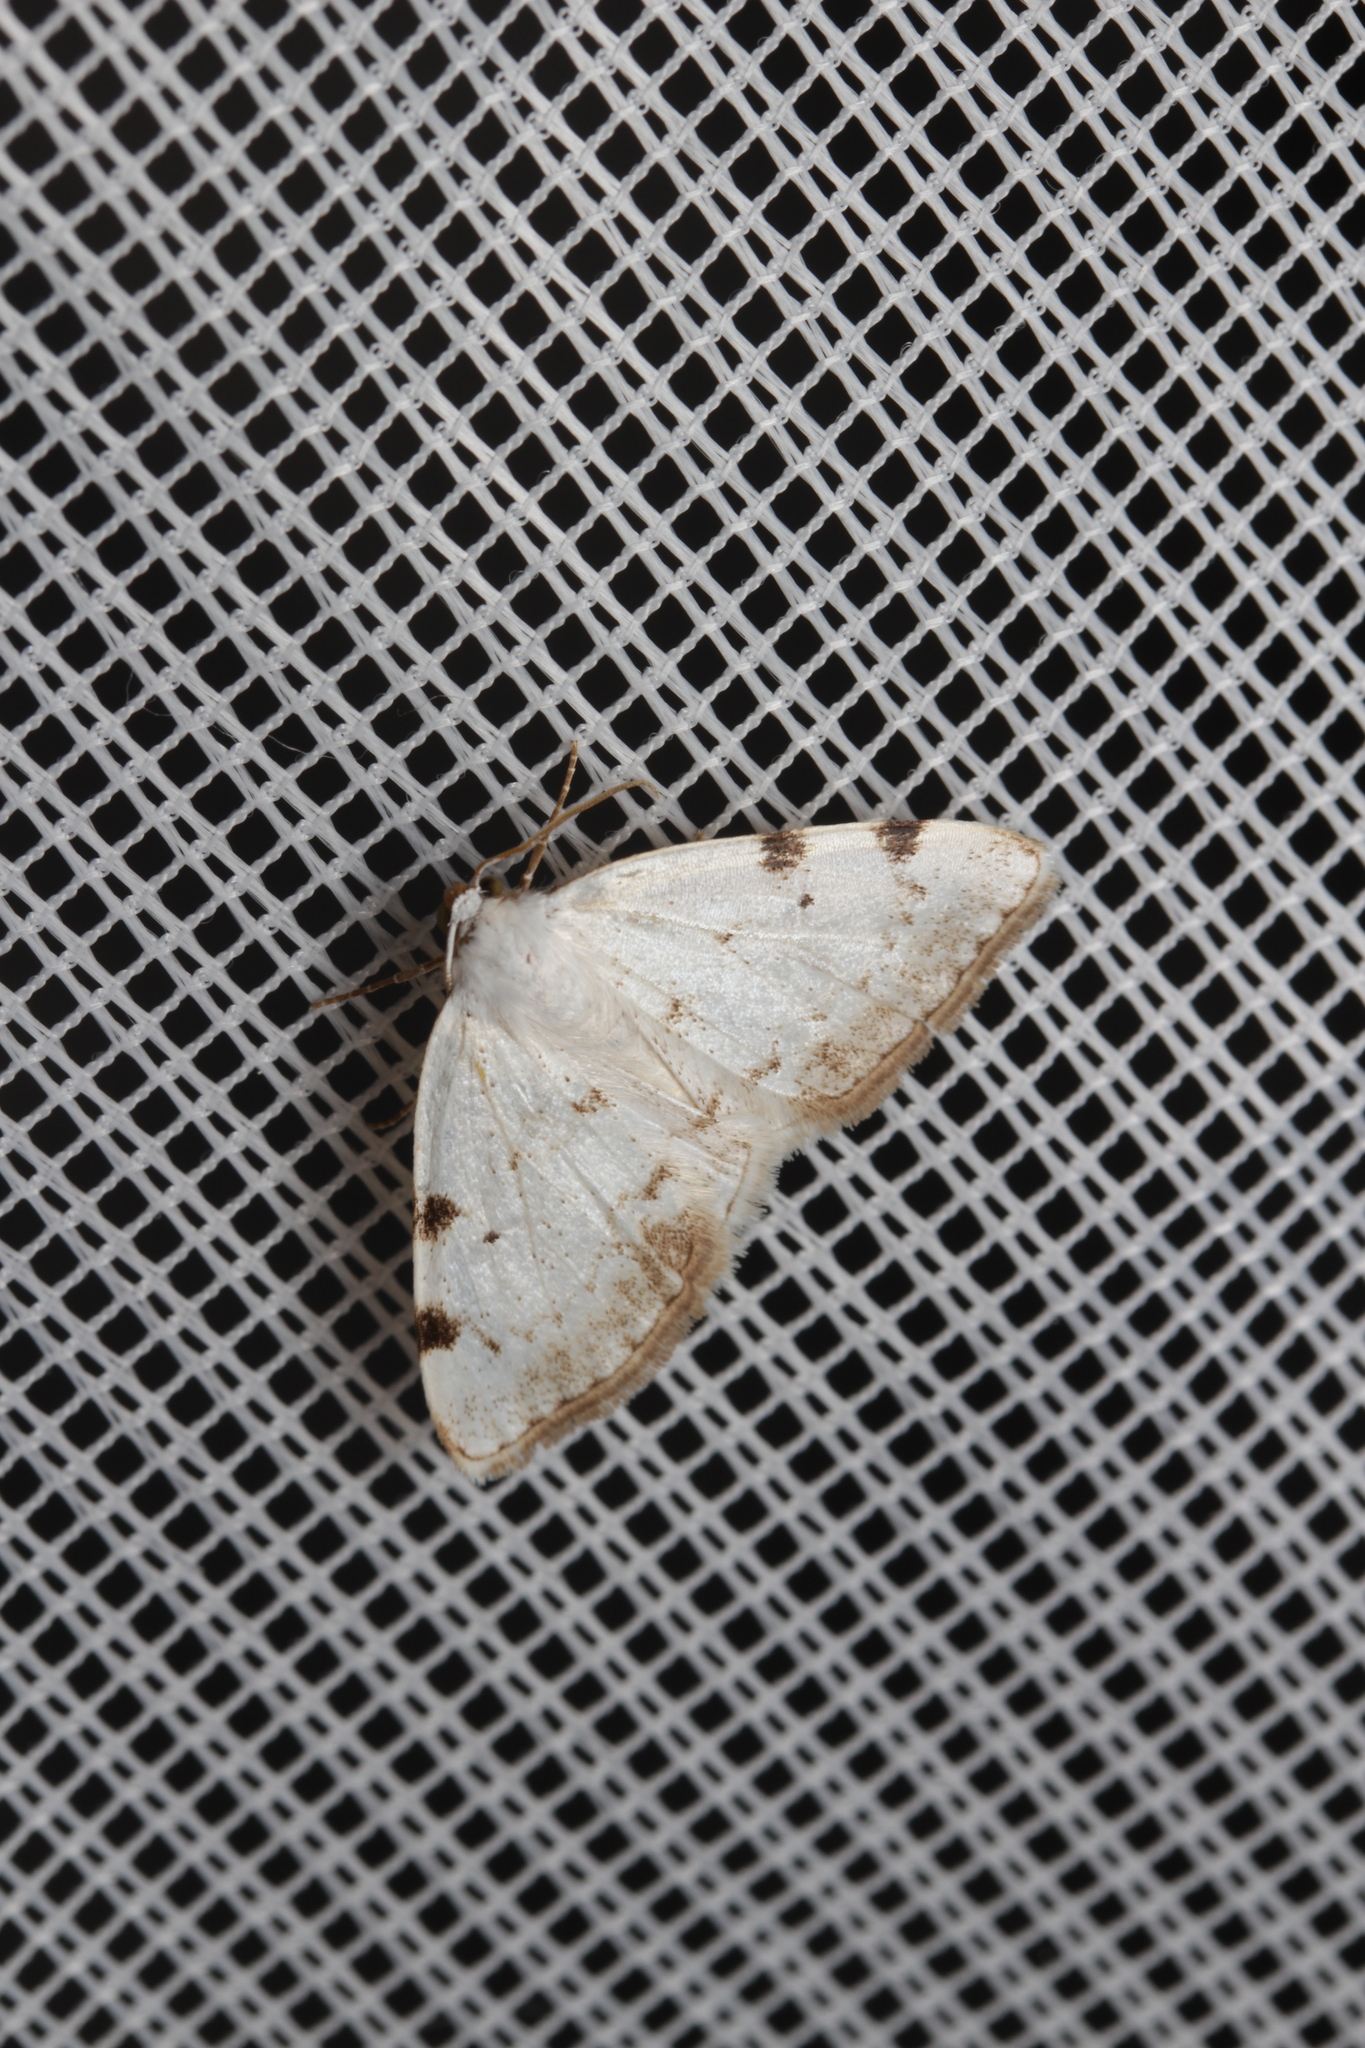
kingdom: Animalia
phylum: Arthropoda
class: Insecta
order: Lepidoptera
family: Geometridae
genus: Lomographa
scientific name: Lomographa bimaculata
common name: White-pinion spotted
